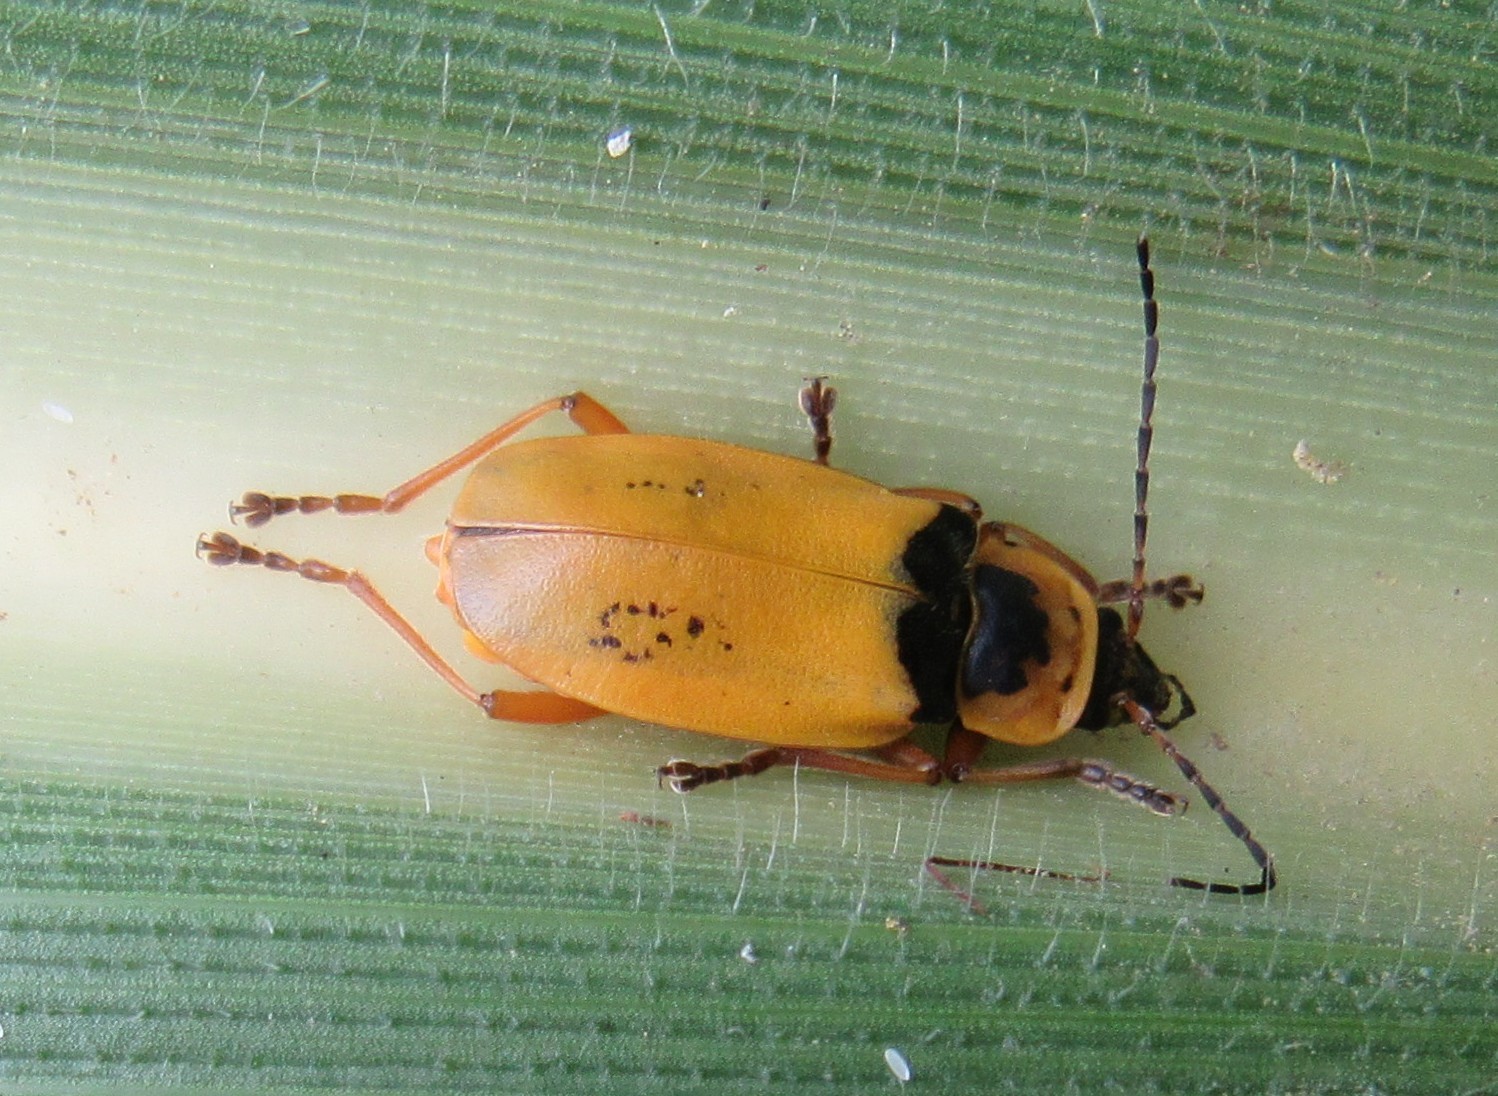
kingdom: Animalia
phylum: Arthropoda
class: Insecta
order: Coleoptera
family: Cantharidae
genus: Chauliognathus
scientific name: Chauliognathus
